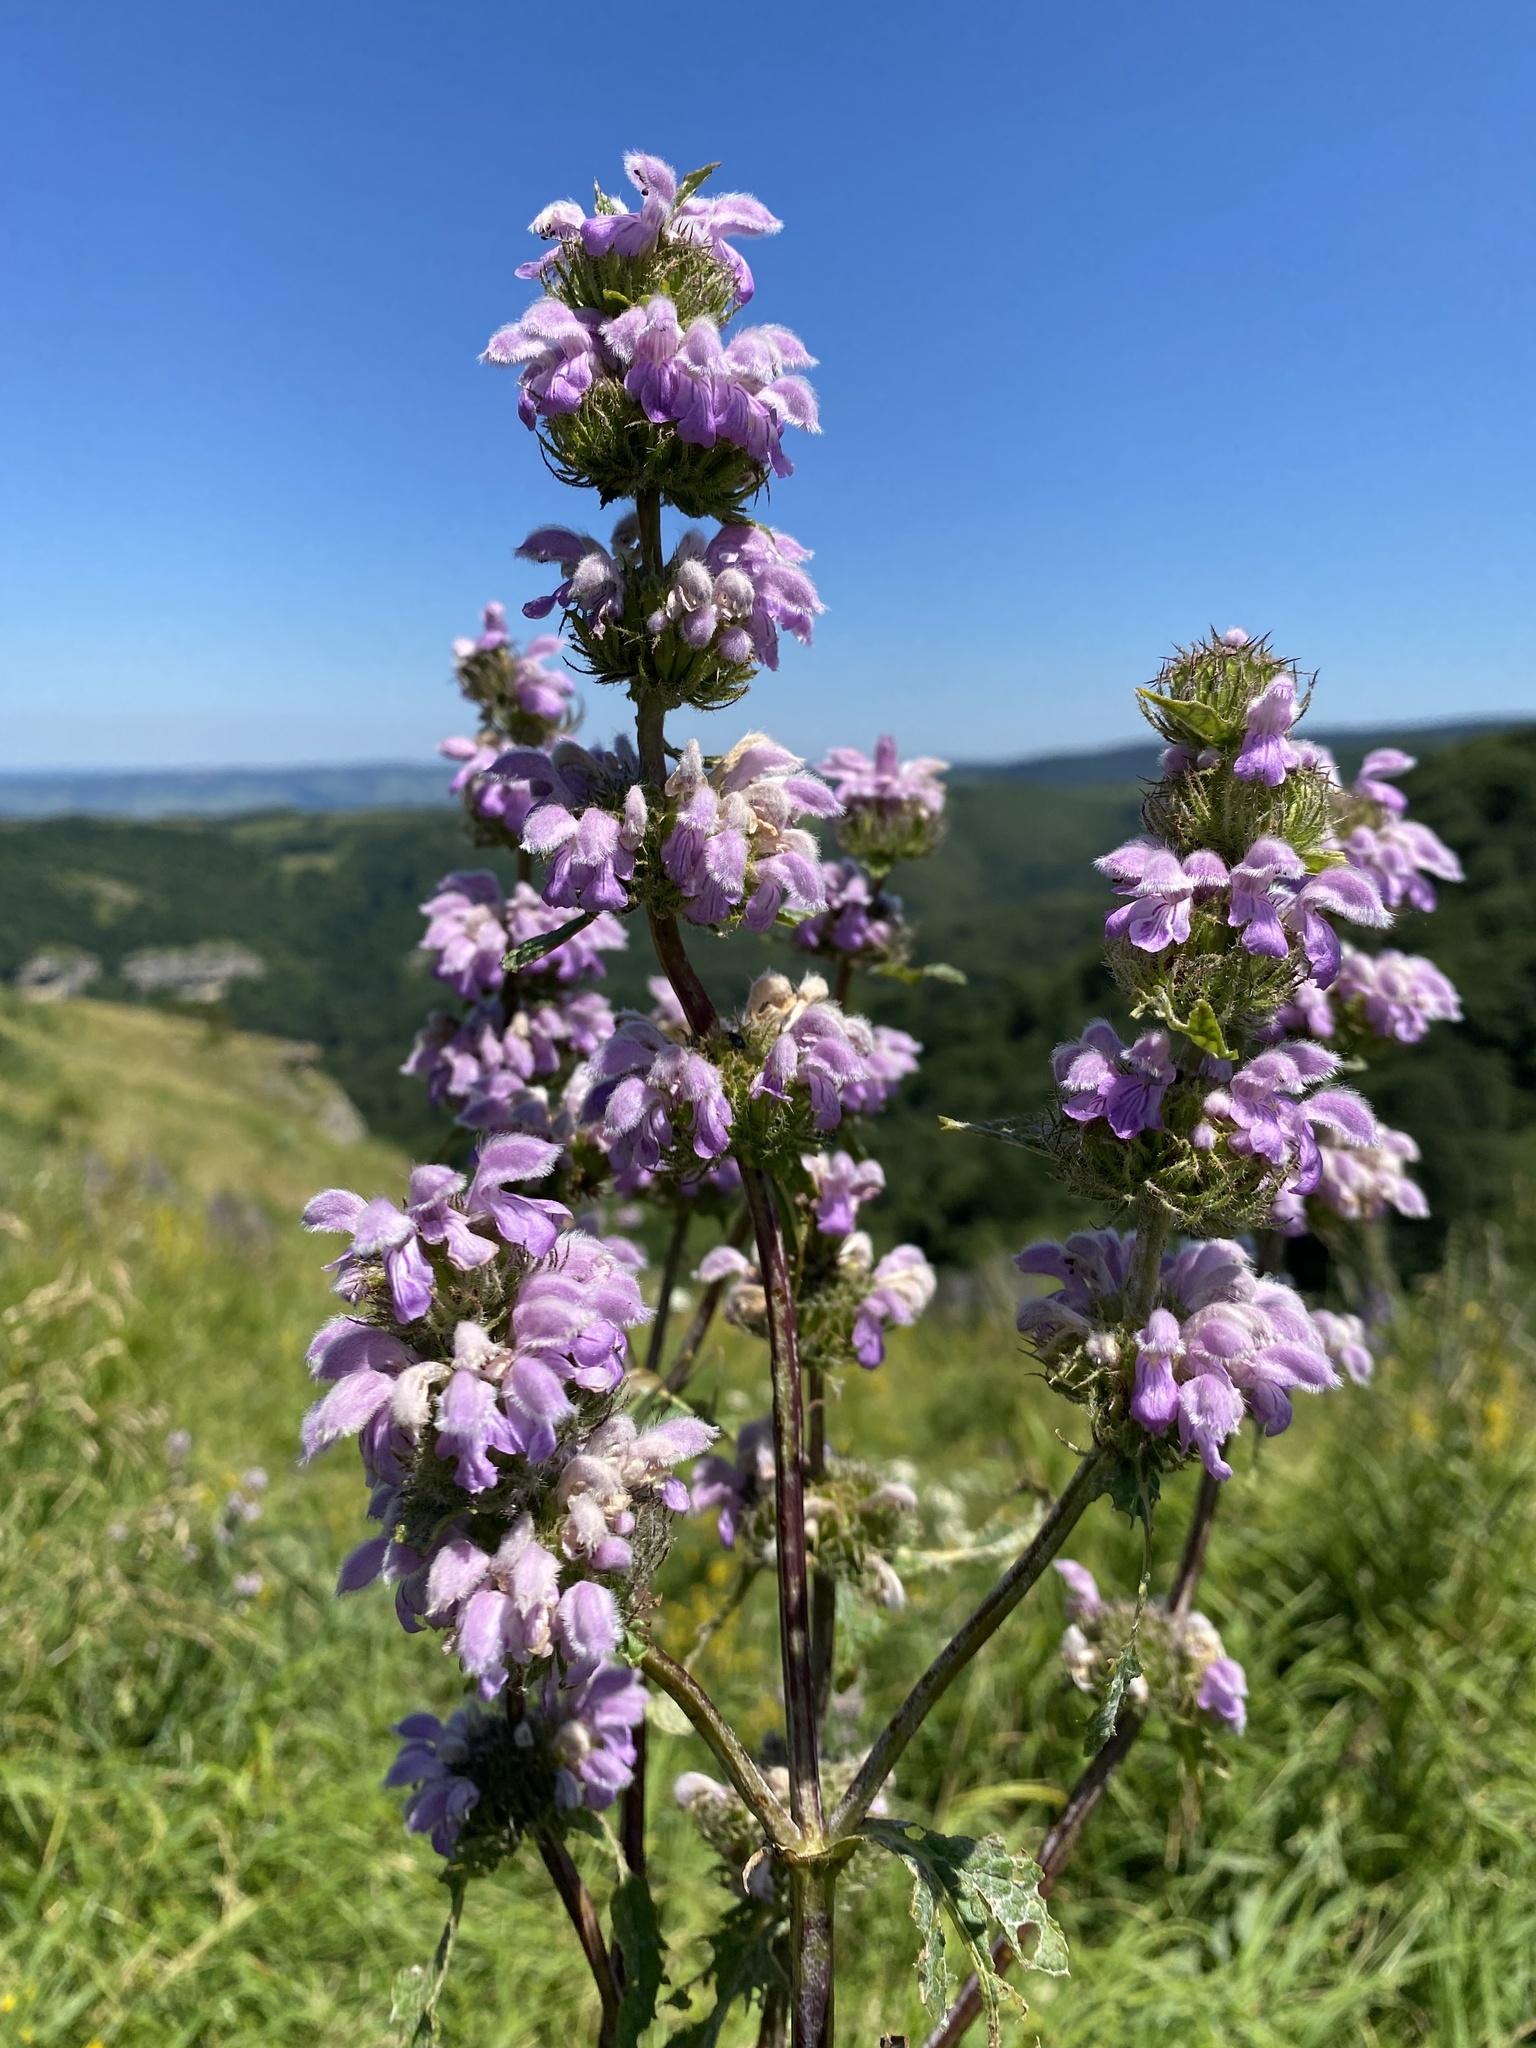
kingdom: Plantae
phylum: Tracheophyta
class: Magnoliopsida
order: Lamiales
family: Lamiaceae
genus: Phlomoides
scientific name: Phlomoides tuberosa
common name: Tuberous jerusalem sage
